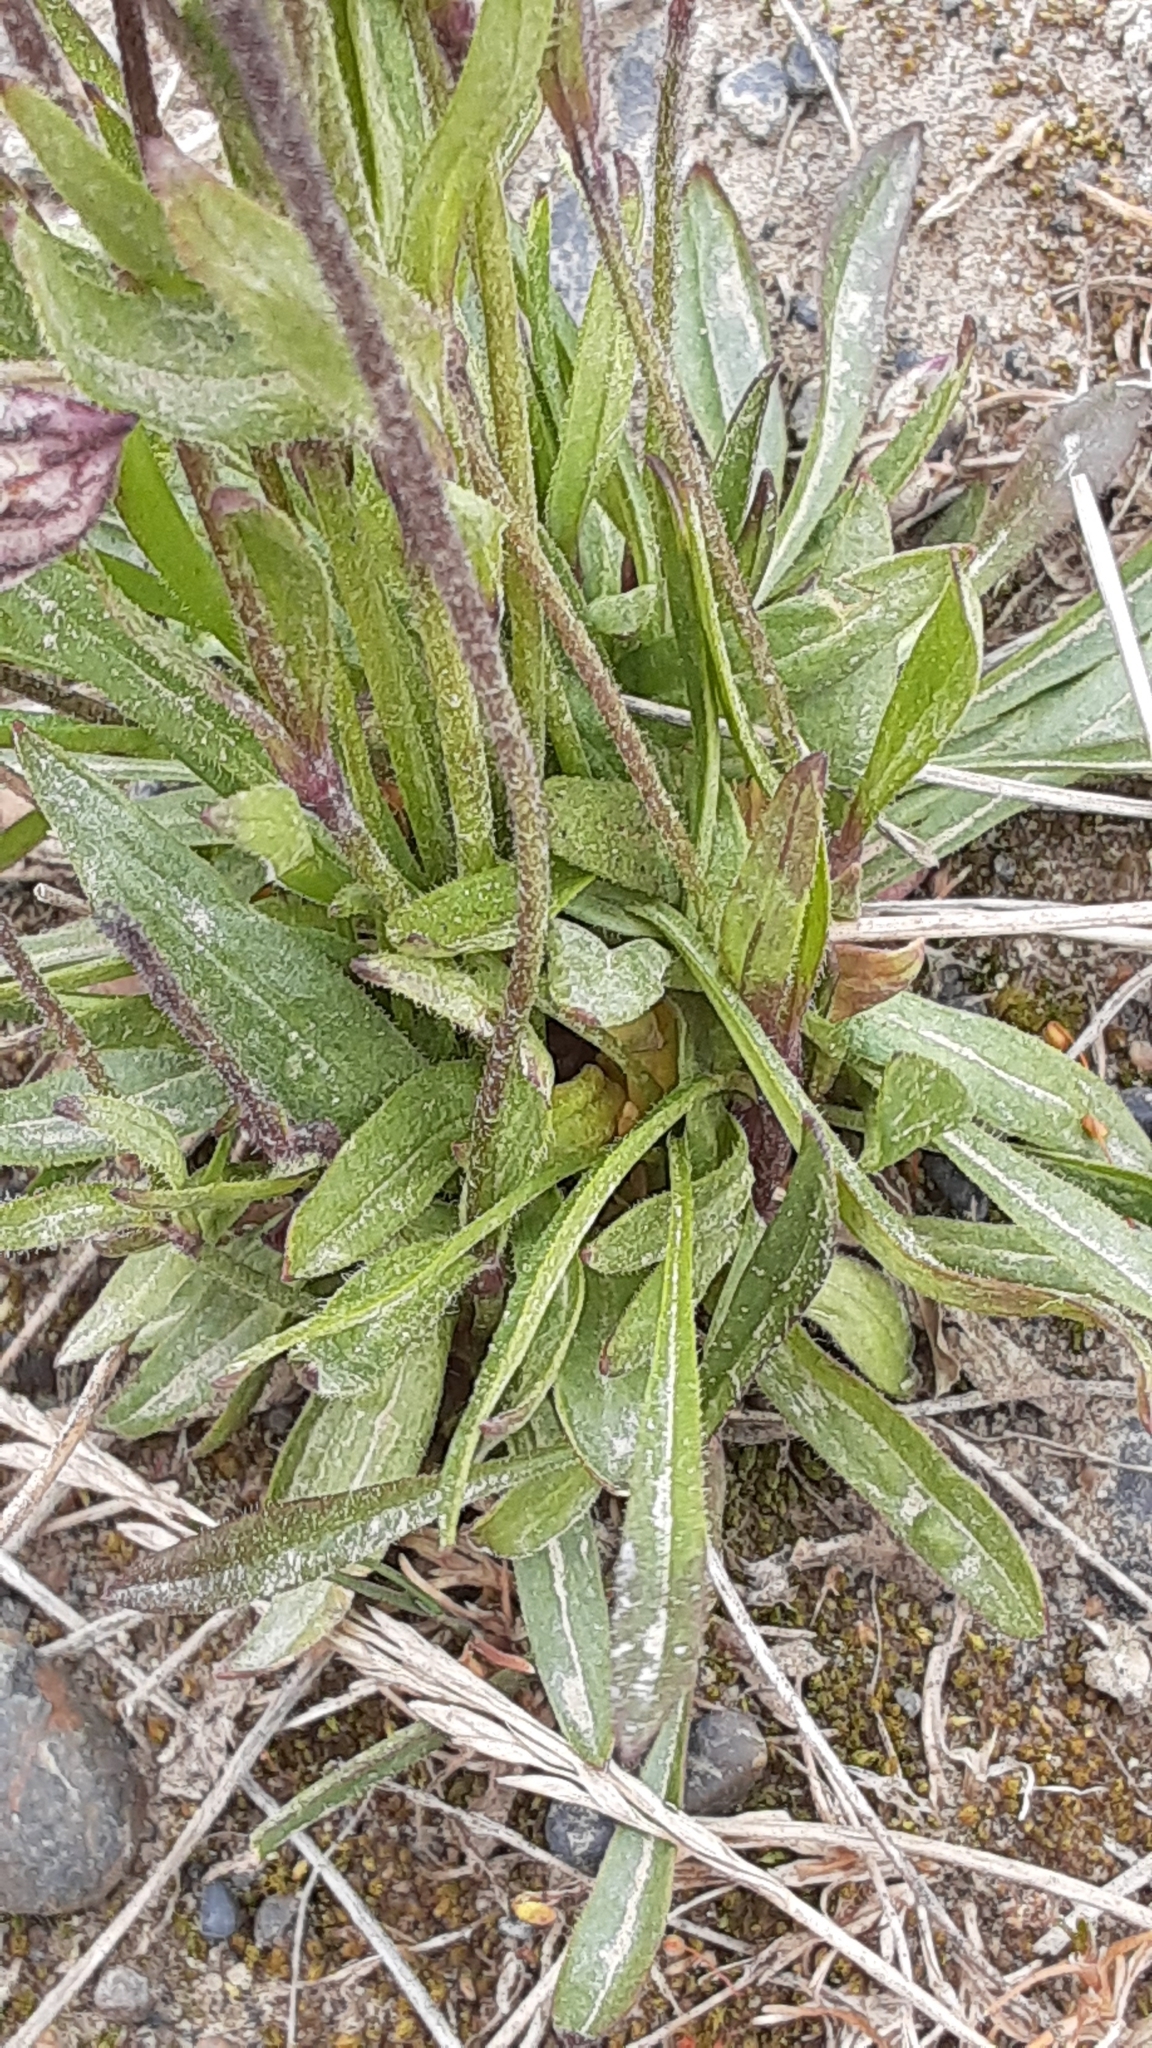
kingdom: Plantae
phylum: Tracheophyta
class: Magnoliopsida
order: Caryophyllales
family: Caryophyllaceae
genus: Silene
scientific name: Silene uralensis
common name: Nodding campion
